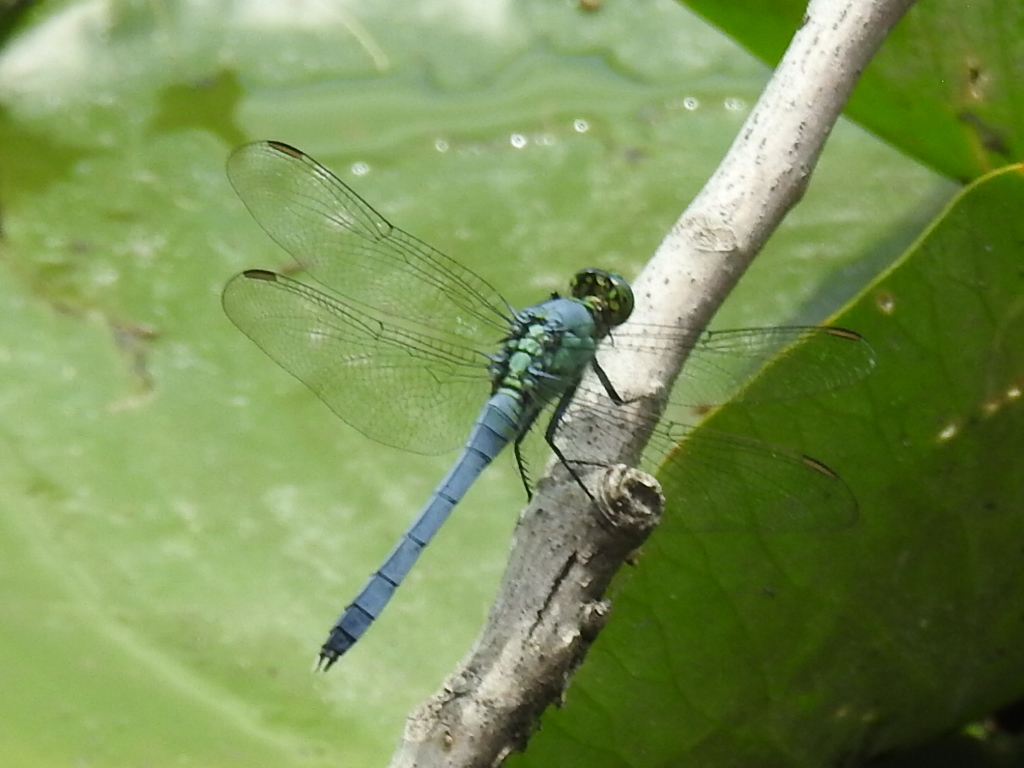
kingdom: Animalia
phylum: Arthropoda
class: Insecta
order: Odonata
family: Libellulidae
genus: Erythemis
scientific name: Erythemis simplicicollis
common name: Eastern pondhawk
